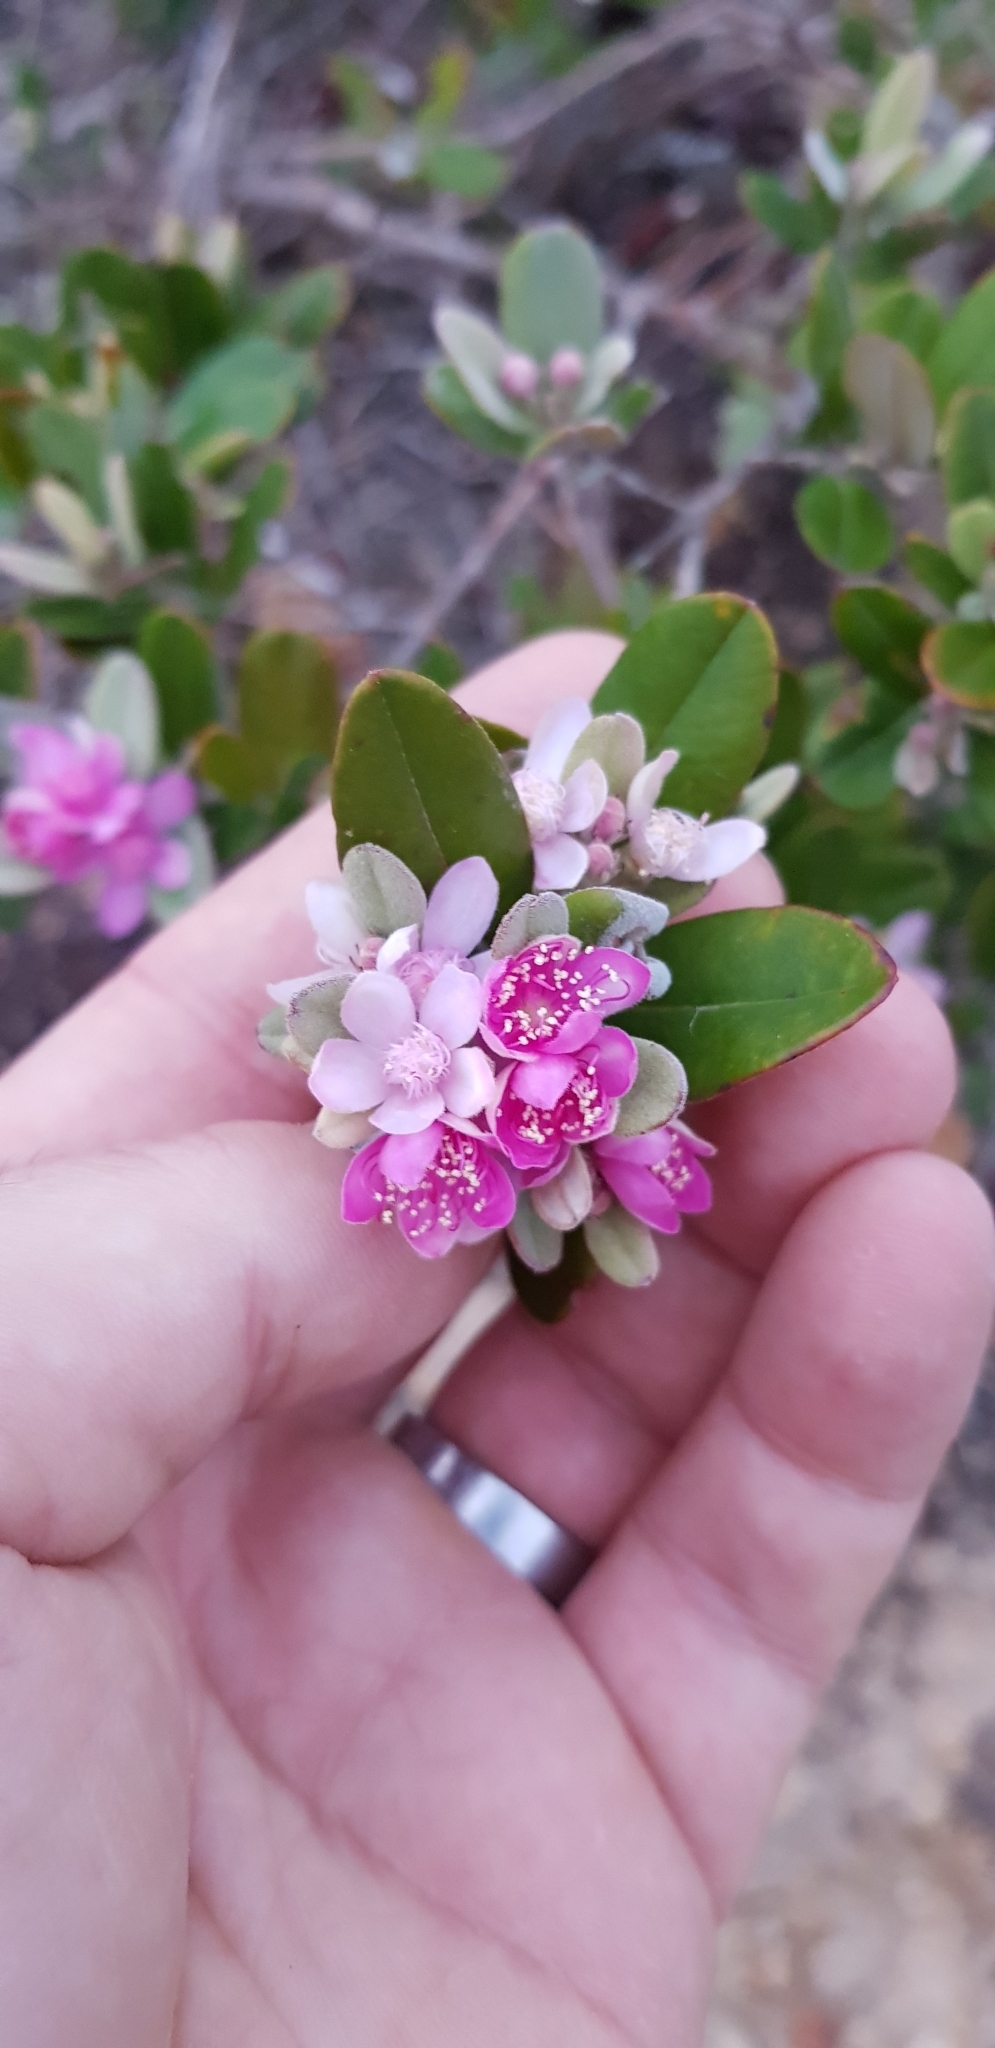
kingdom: Plantae
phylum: Tracheophyta
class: Magnoliopsida
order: Myrtales
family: Myrtaceae
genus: Lithomyrtus
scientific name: Lithomyrtus obtusa
